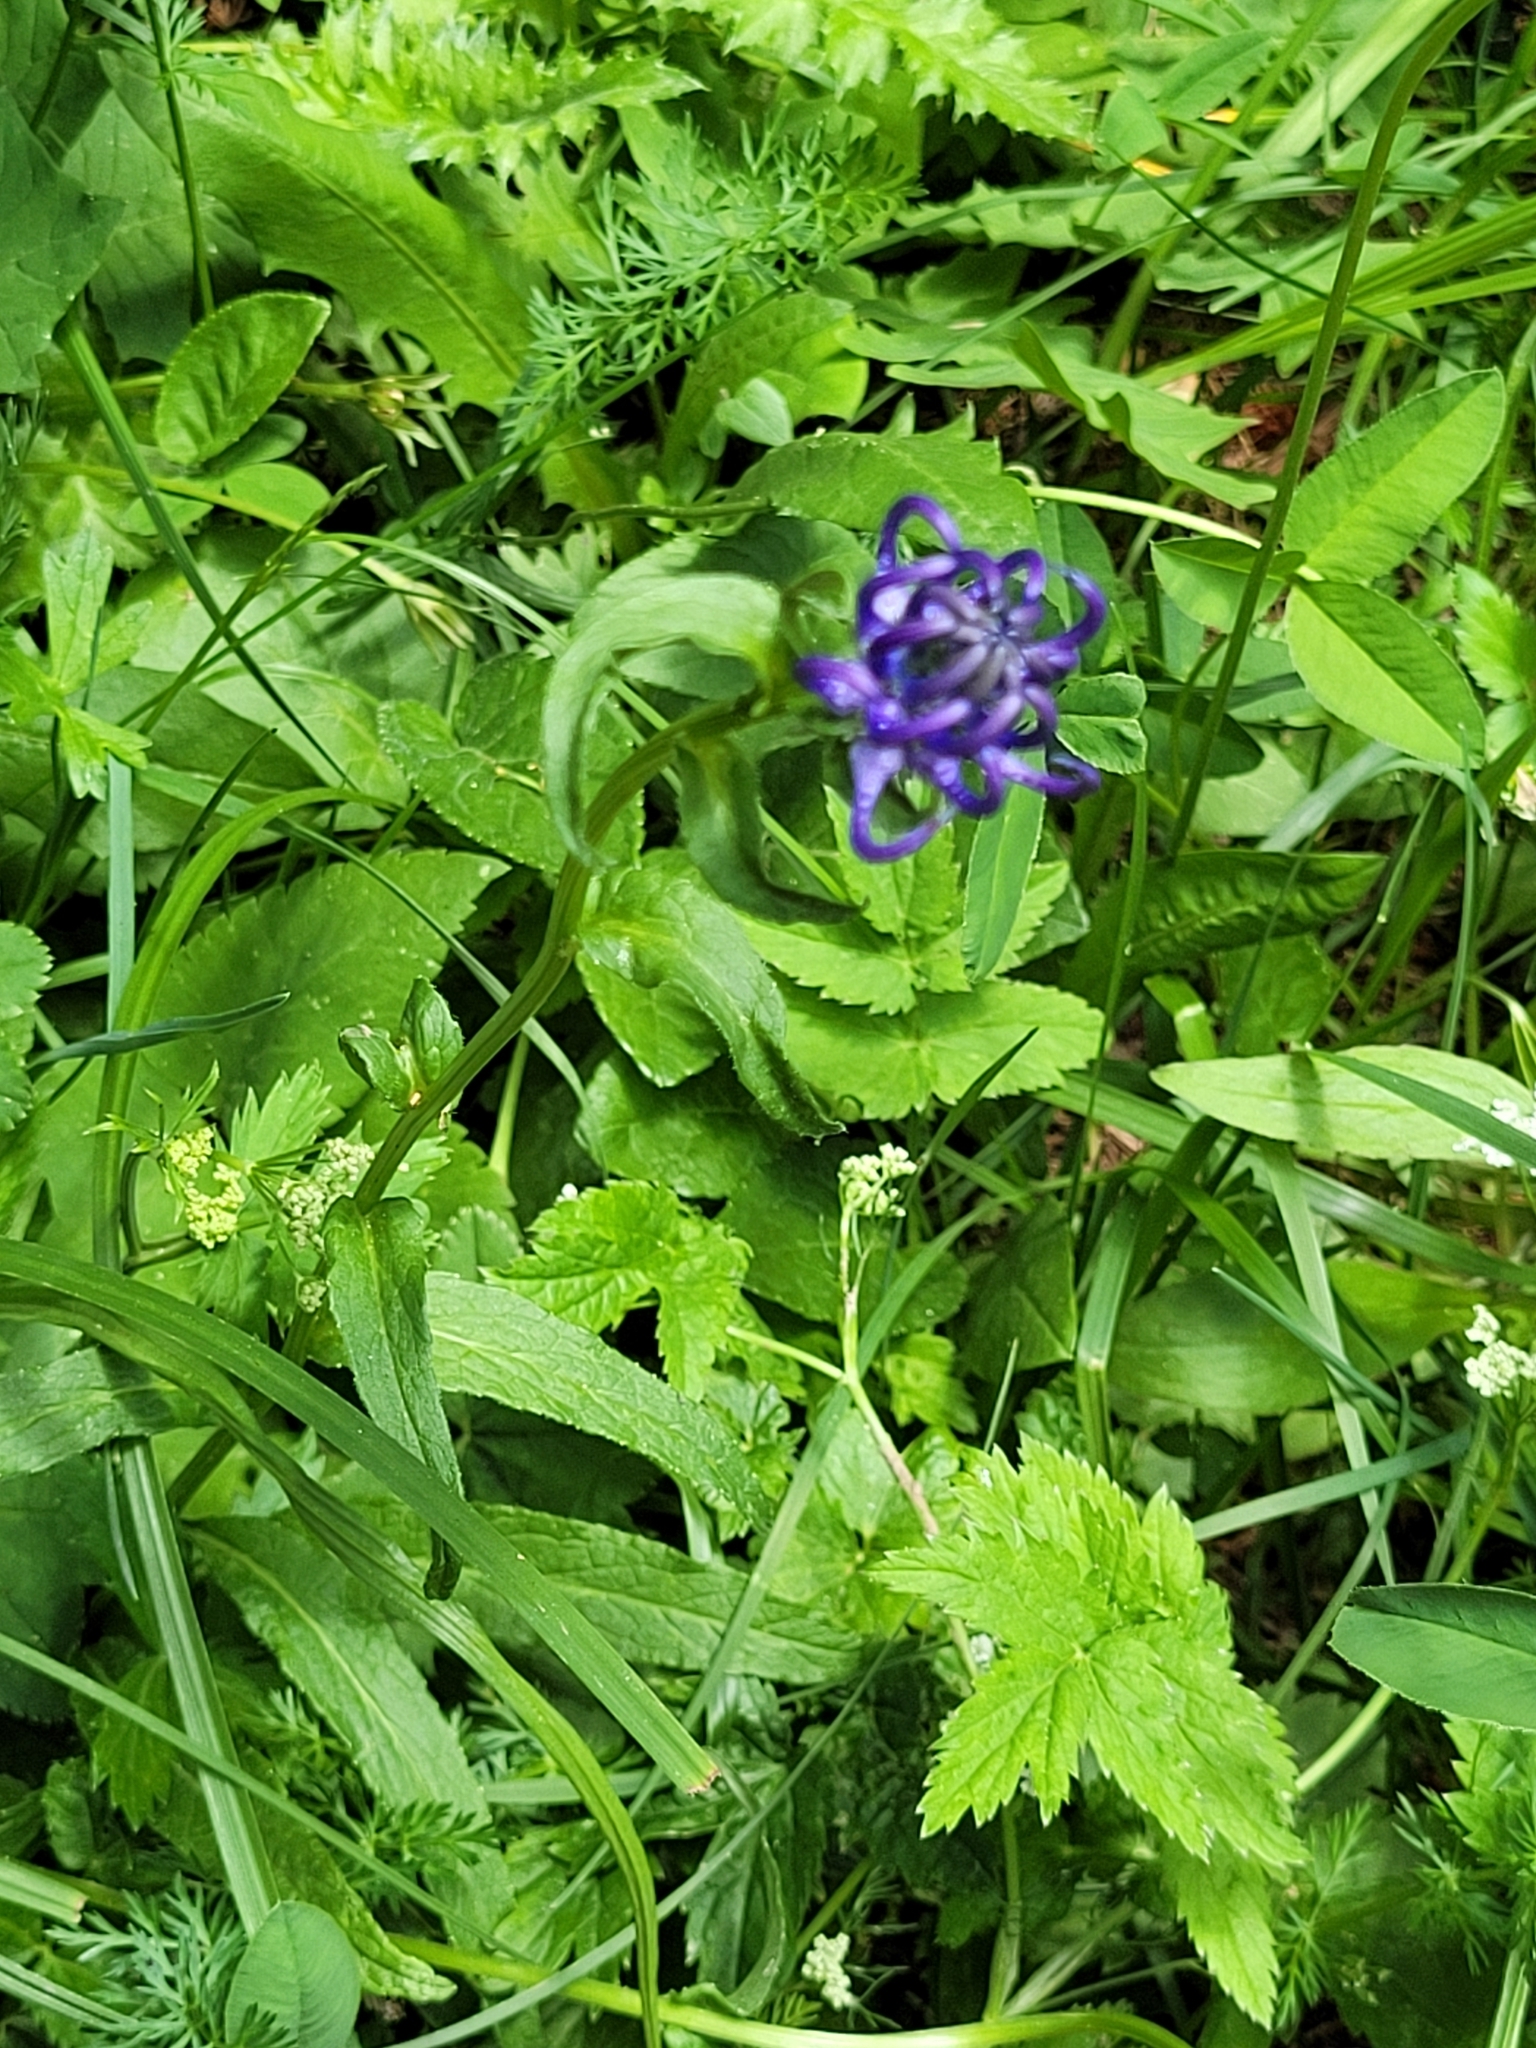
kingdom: Plantae
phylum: Tracheophyta
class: Magnoliopsida
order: Asterales
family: Campanulaceae
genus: Phyteuma
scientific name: Phyteuma orbiculare
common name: Round-headed rampion
